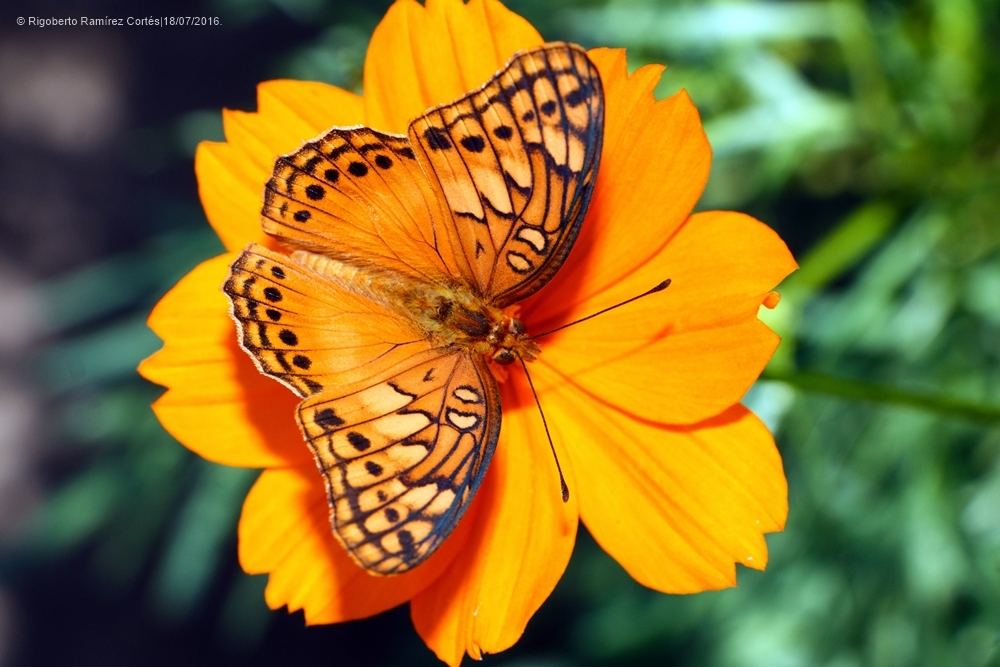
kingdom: Animalia
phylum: Arthropoda
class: Insecta
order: Lepidoptera
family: Nymphalidae
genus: Euptoieta
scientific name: Euptoieta hegesia
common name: Mexican fritillary
